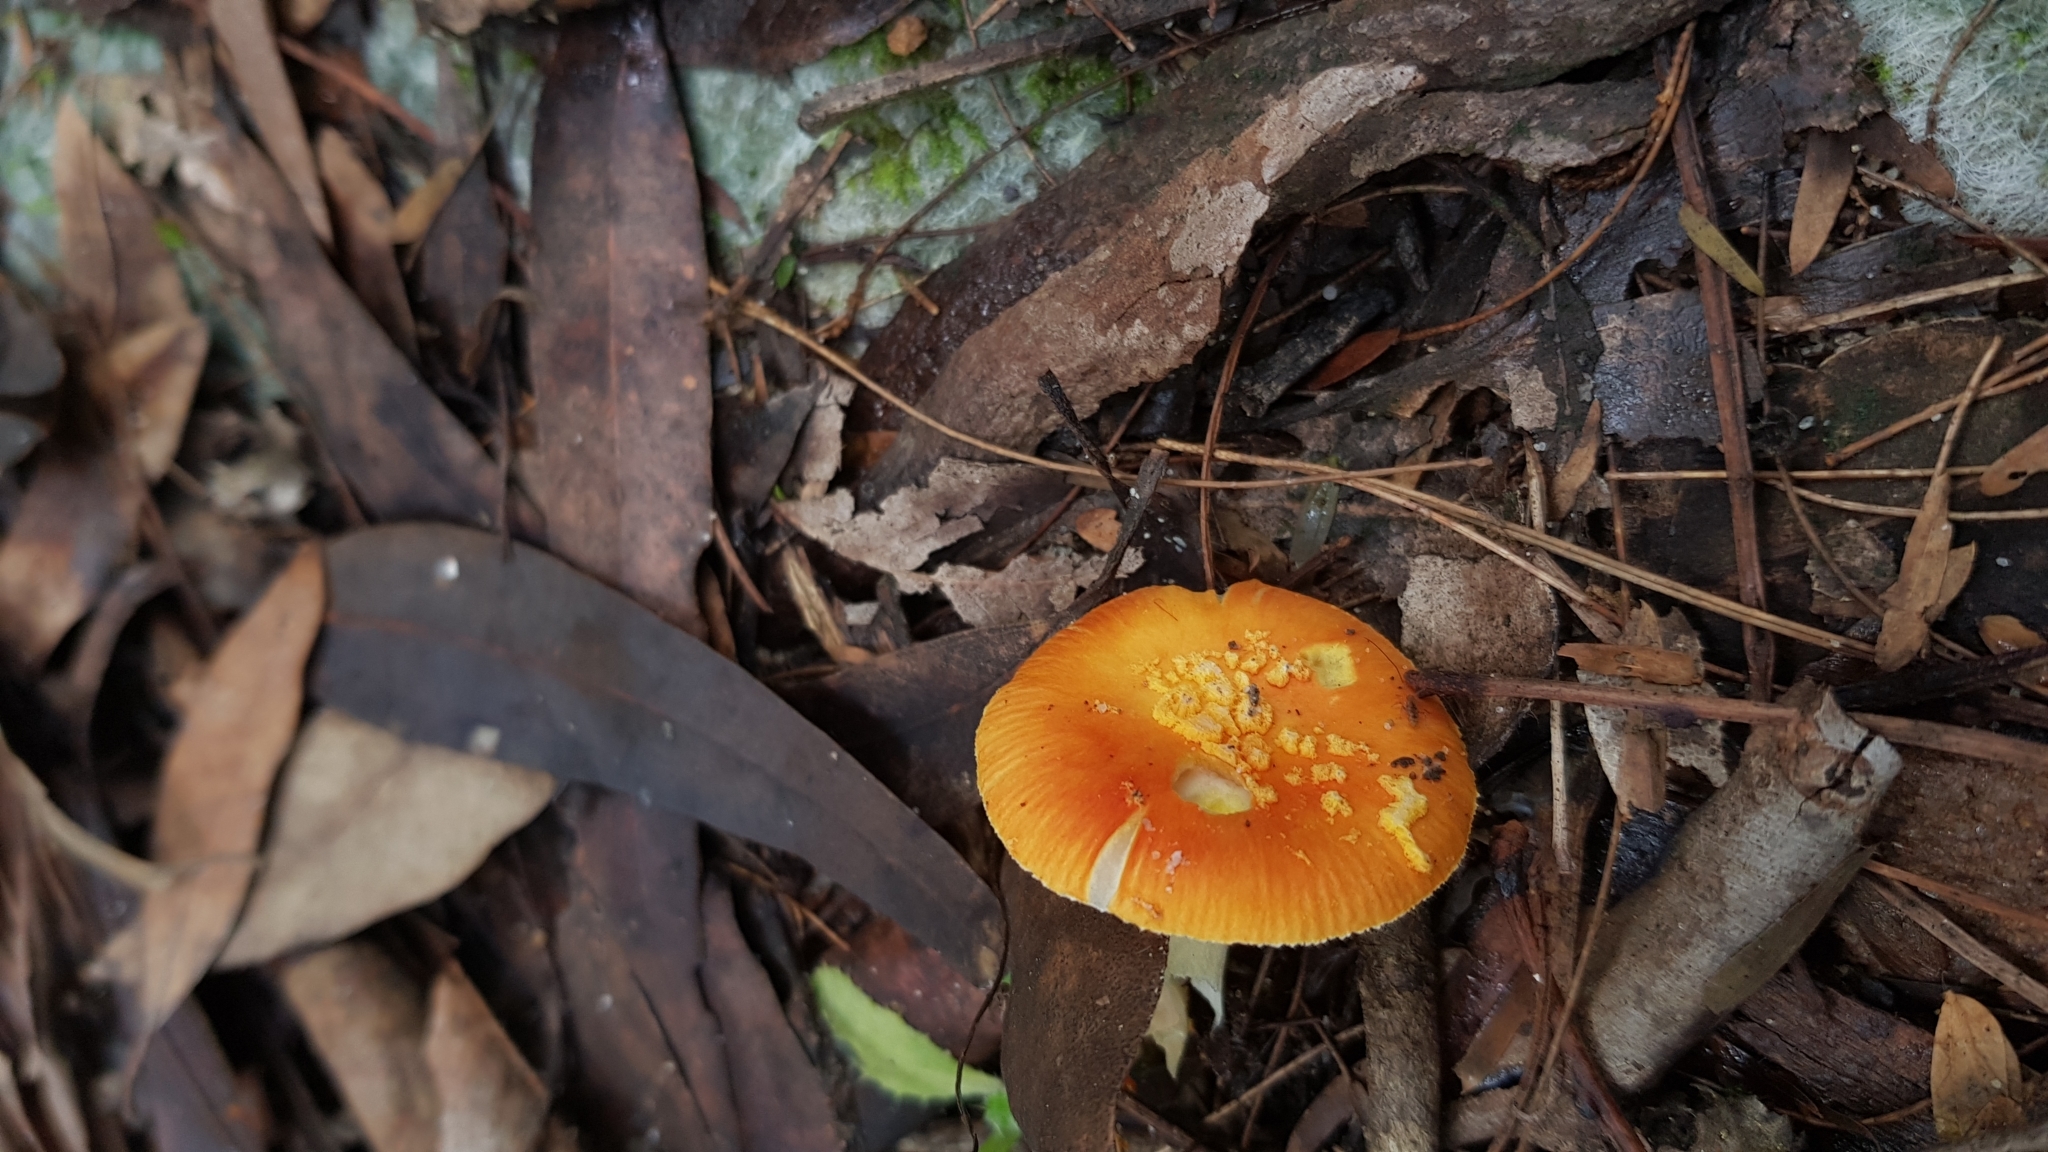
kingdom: Fungi
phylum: Basidiomycota
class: Agaricomycetes
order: Agaricales
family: Amanitaceae
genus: Amanita
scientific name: Amanita xanthocephala
